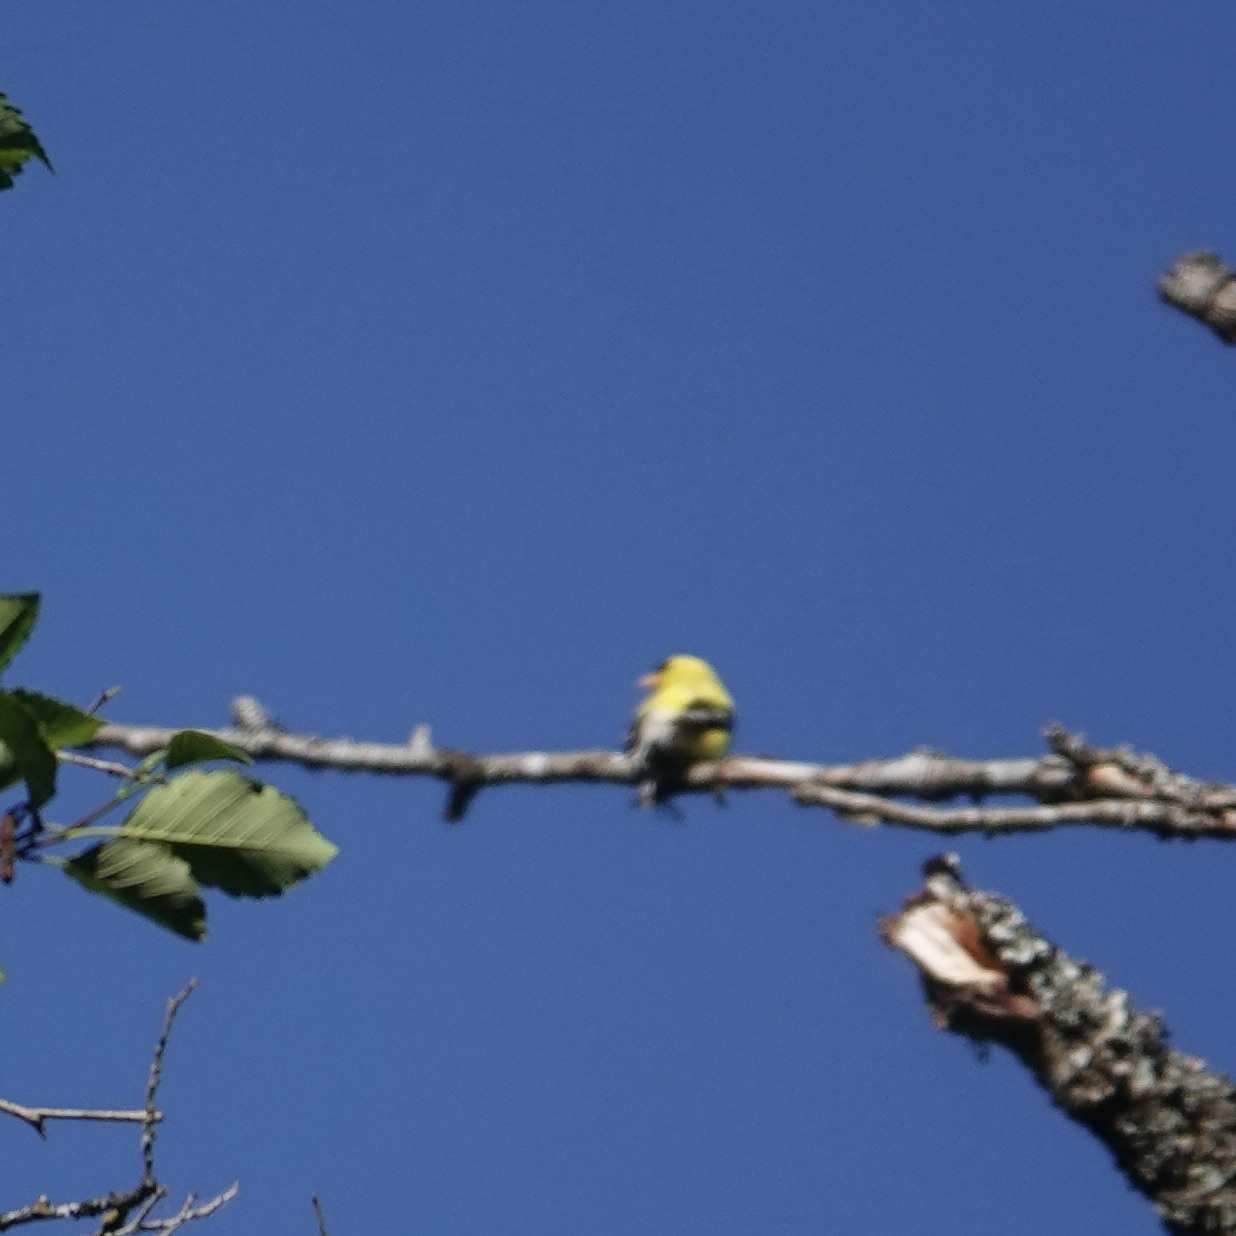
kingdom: Animalia
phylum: Chordata
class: Aves
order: Passeriformes
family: Fringillidae
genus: Spinus
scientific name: Spinus tristis
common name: American goldfinch
